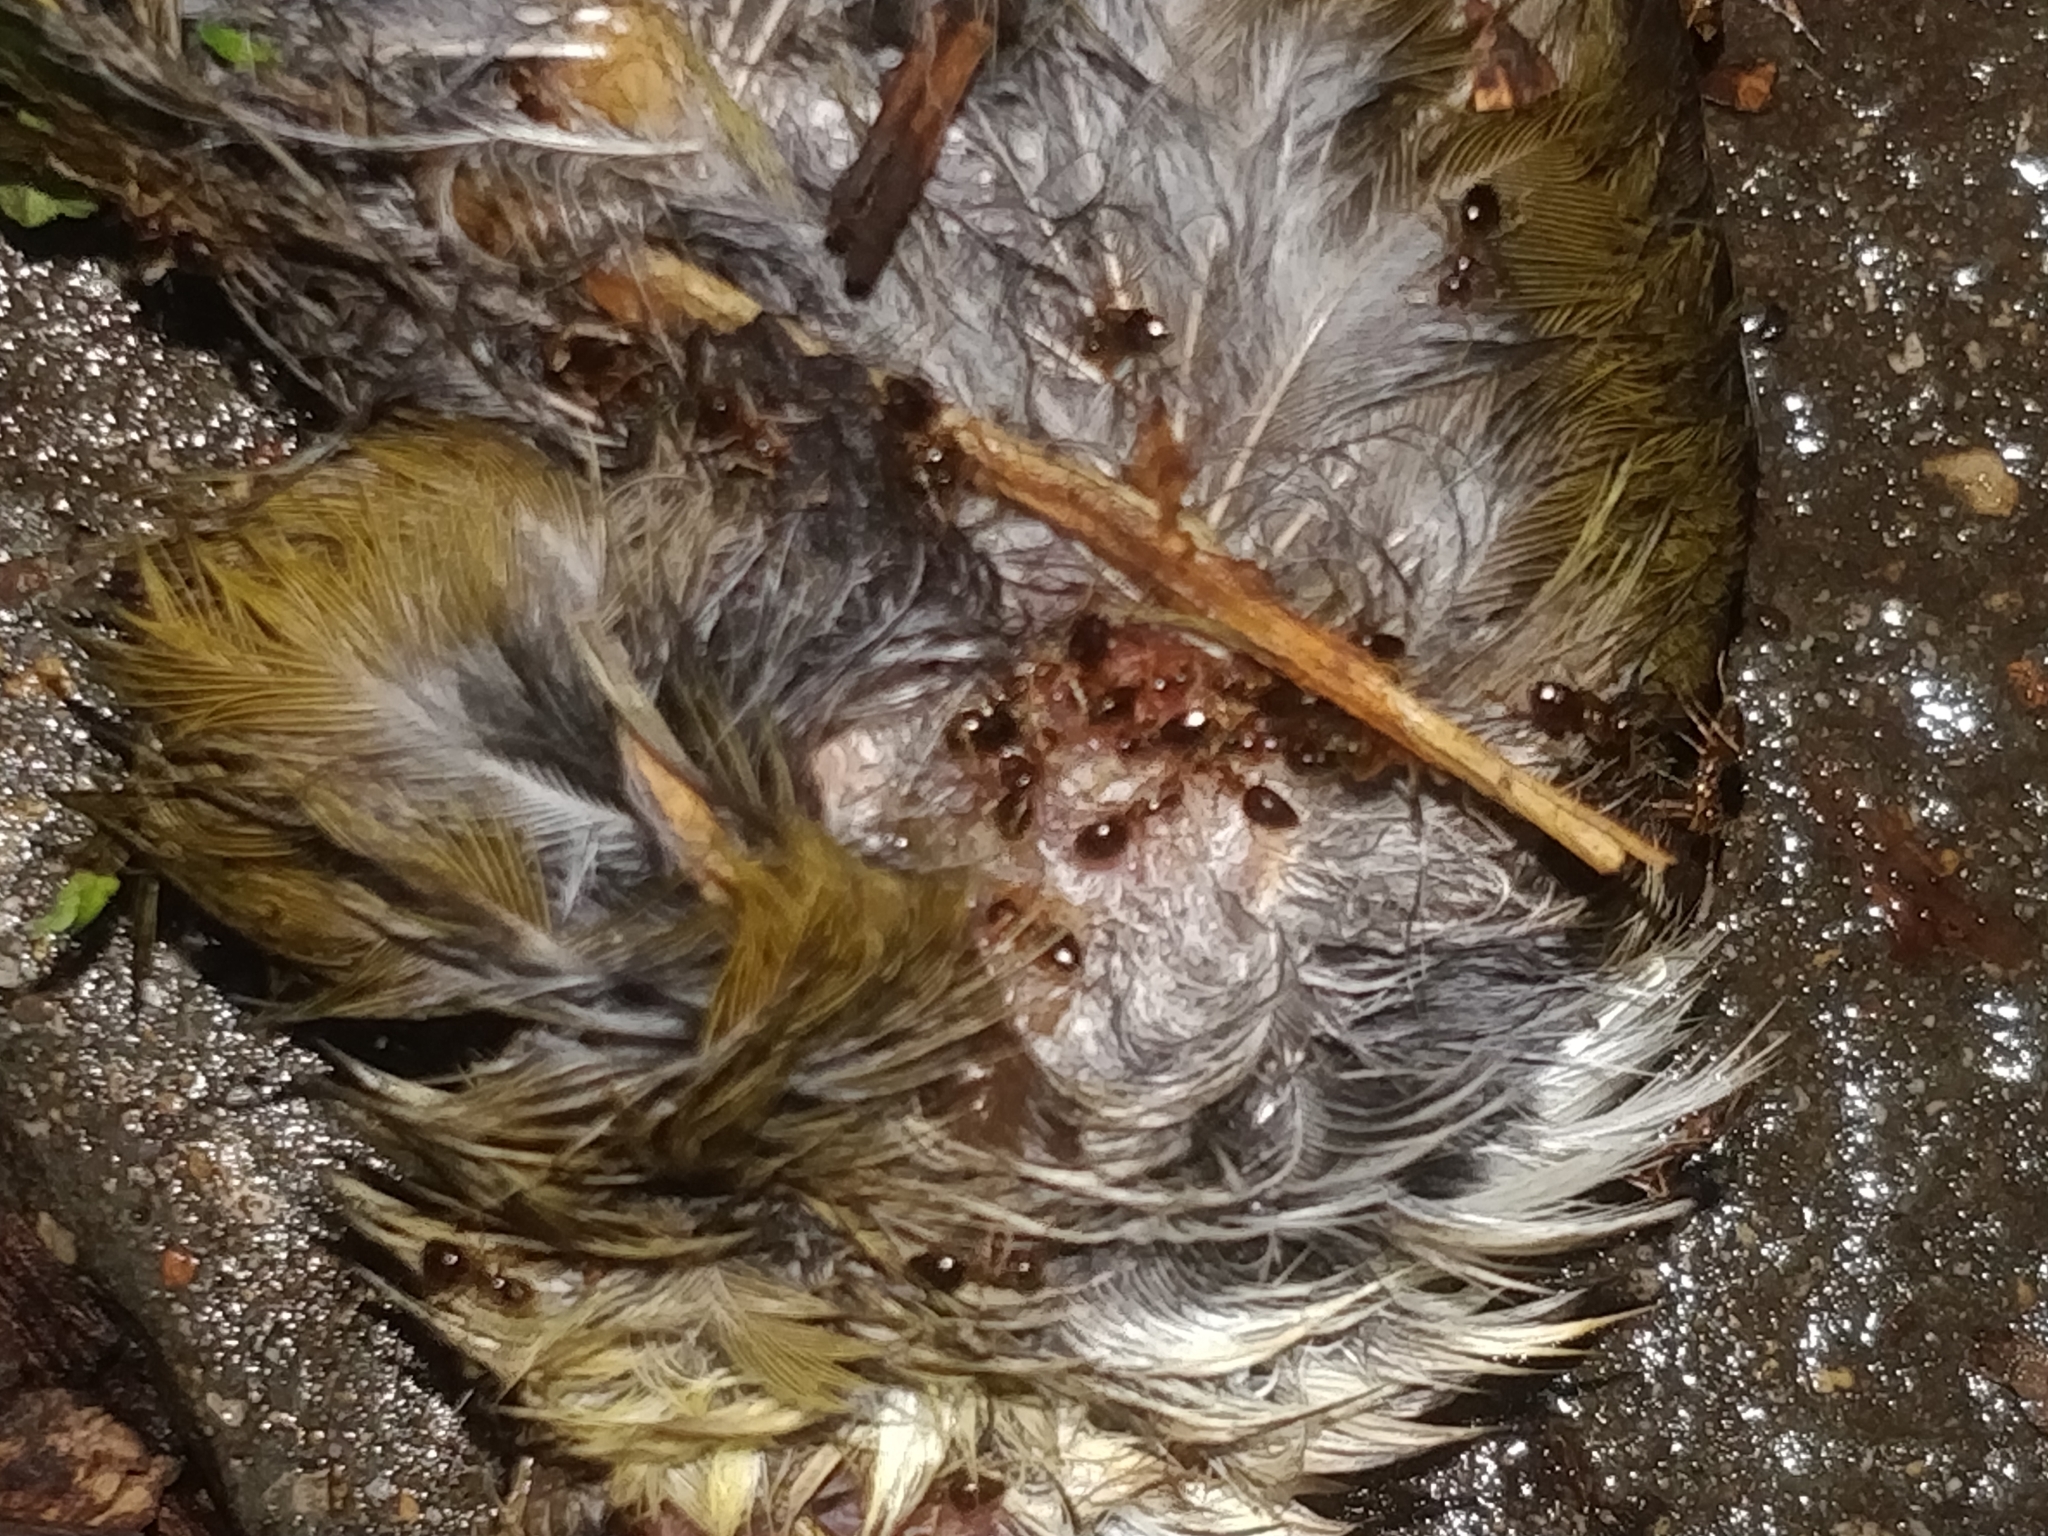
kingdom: Animalia
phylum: Arthropoda
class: Insecta
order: Hymenoptera
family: Formicidae
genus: Prenolepis
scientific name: Prenolepis imparis
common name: Small honey ant
